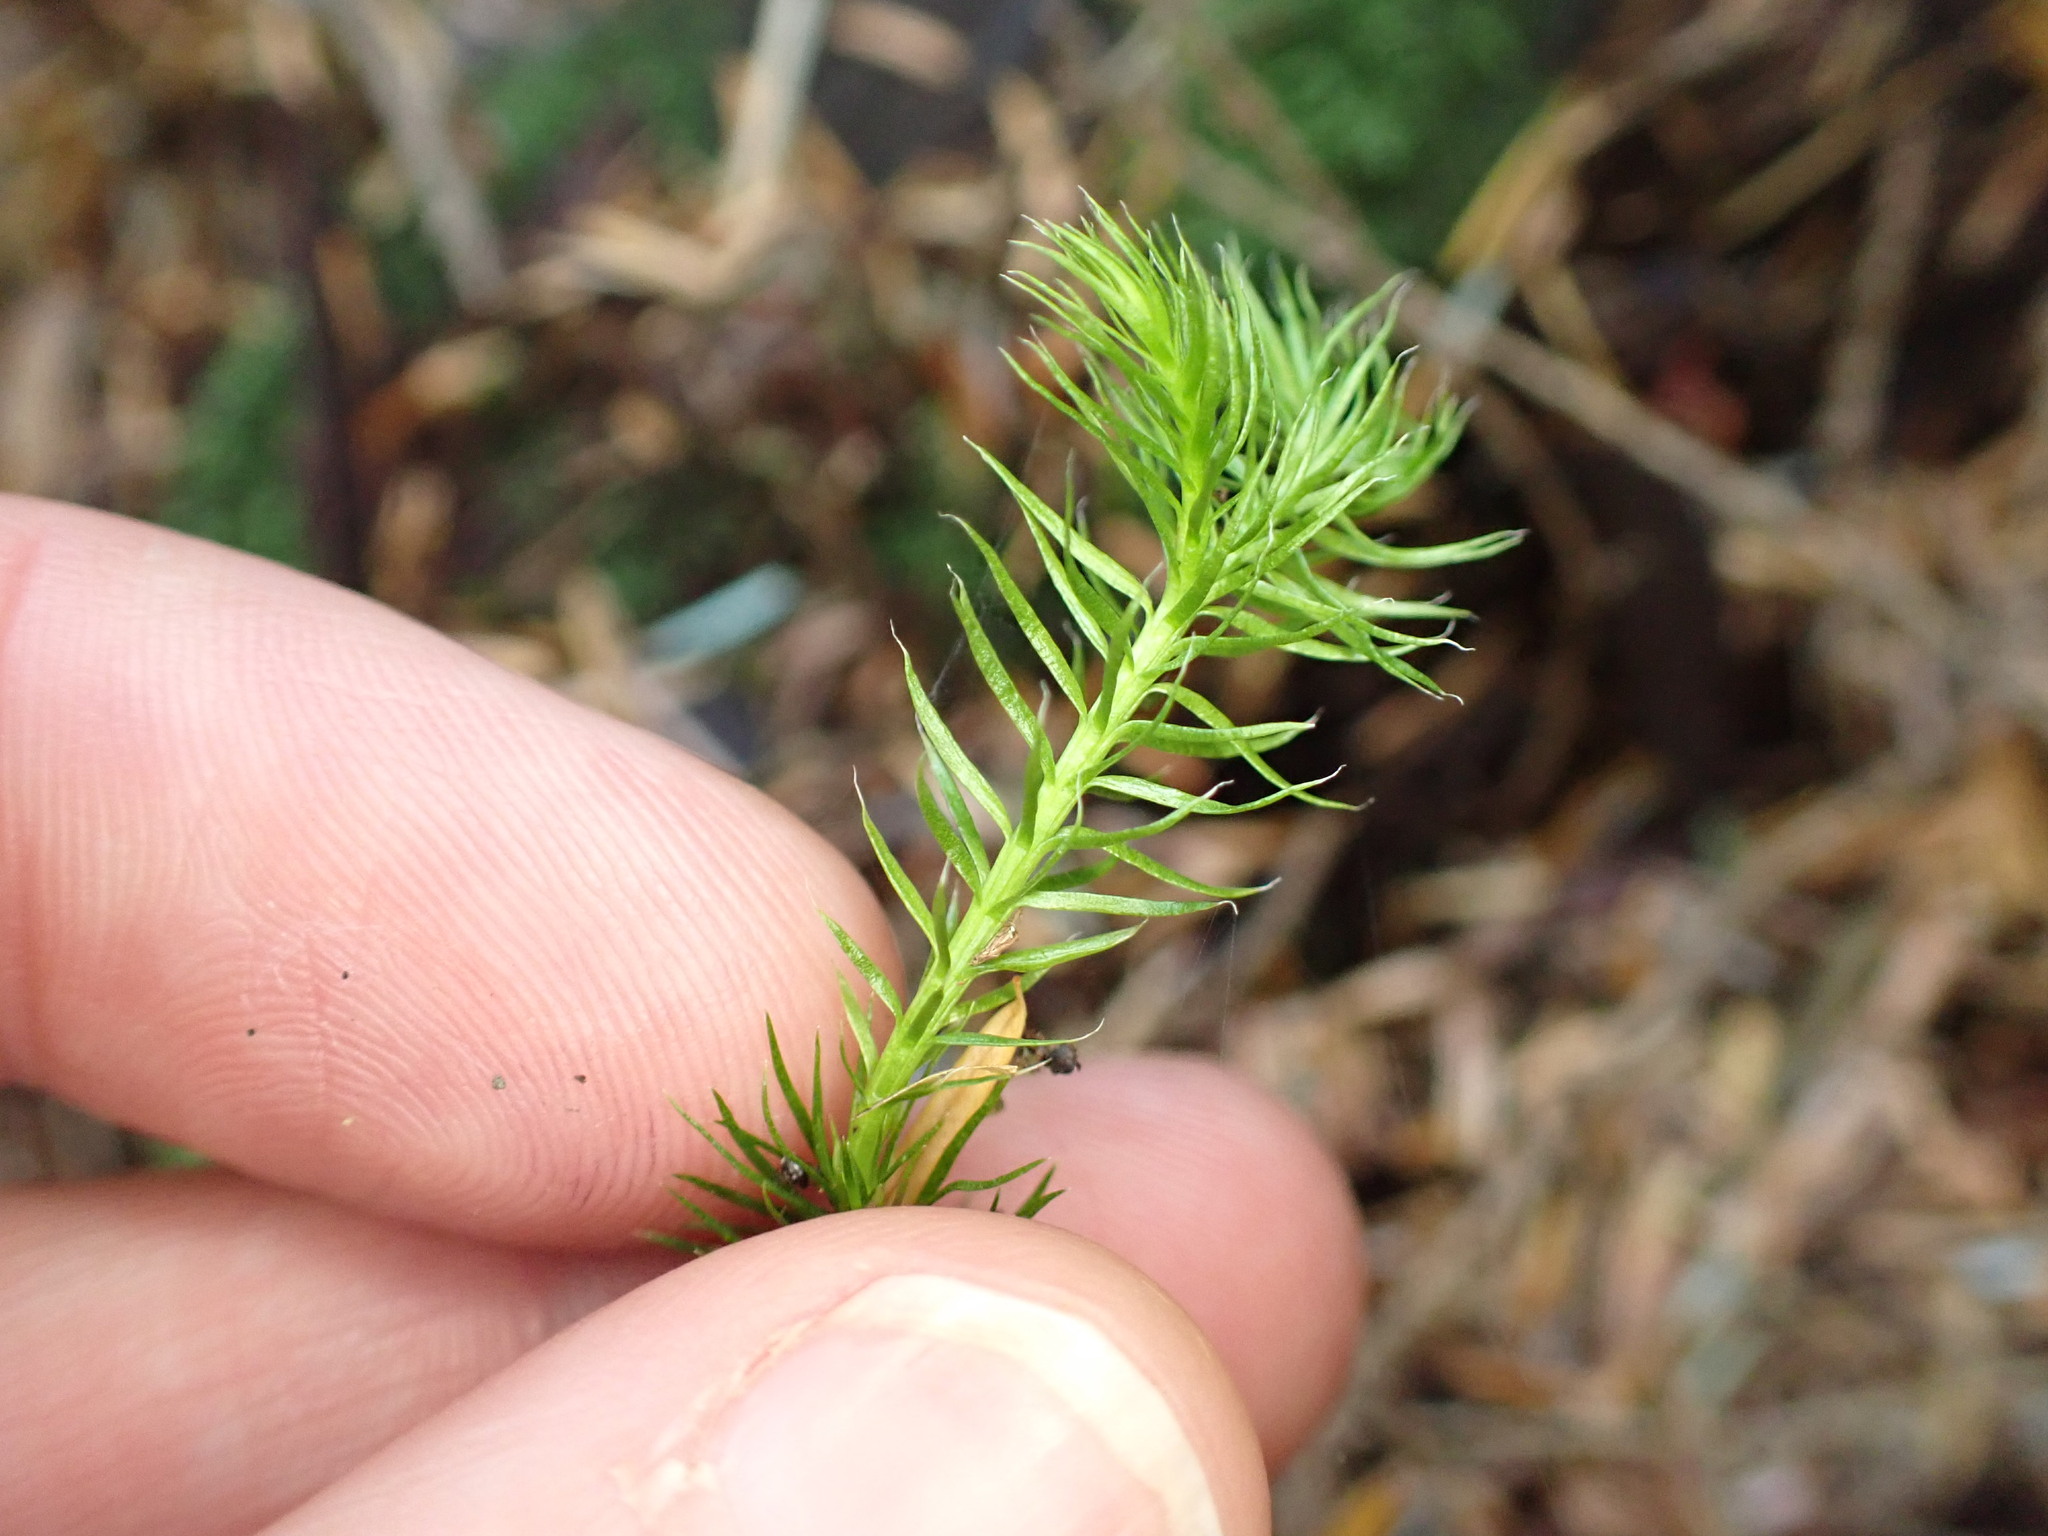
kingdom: Plantae
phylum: Tracheophyta
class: Lycopodiopsida
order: Lycopodiales
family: Lycopodiaceae
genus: Lycopodium
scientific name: Lycopodium clavatum
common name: Stag's-horn clubmoss
